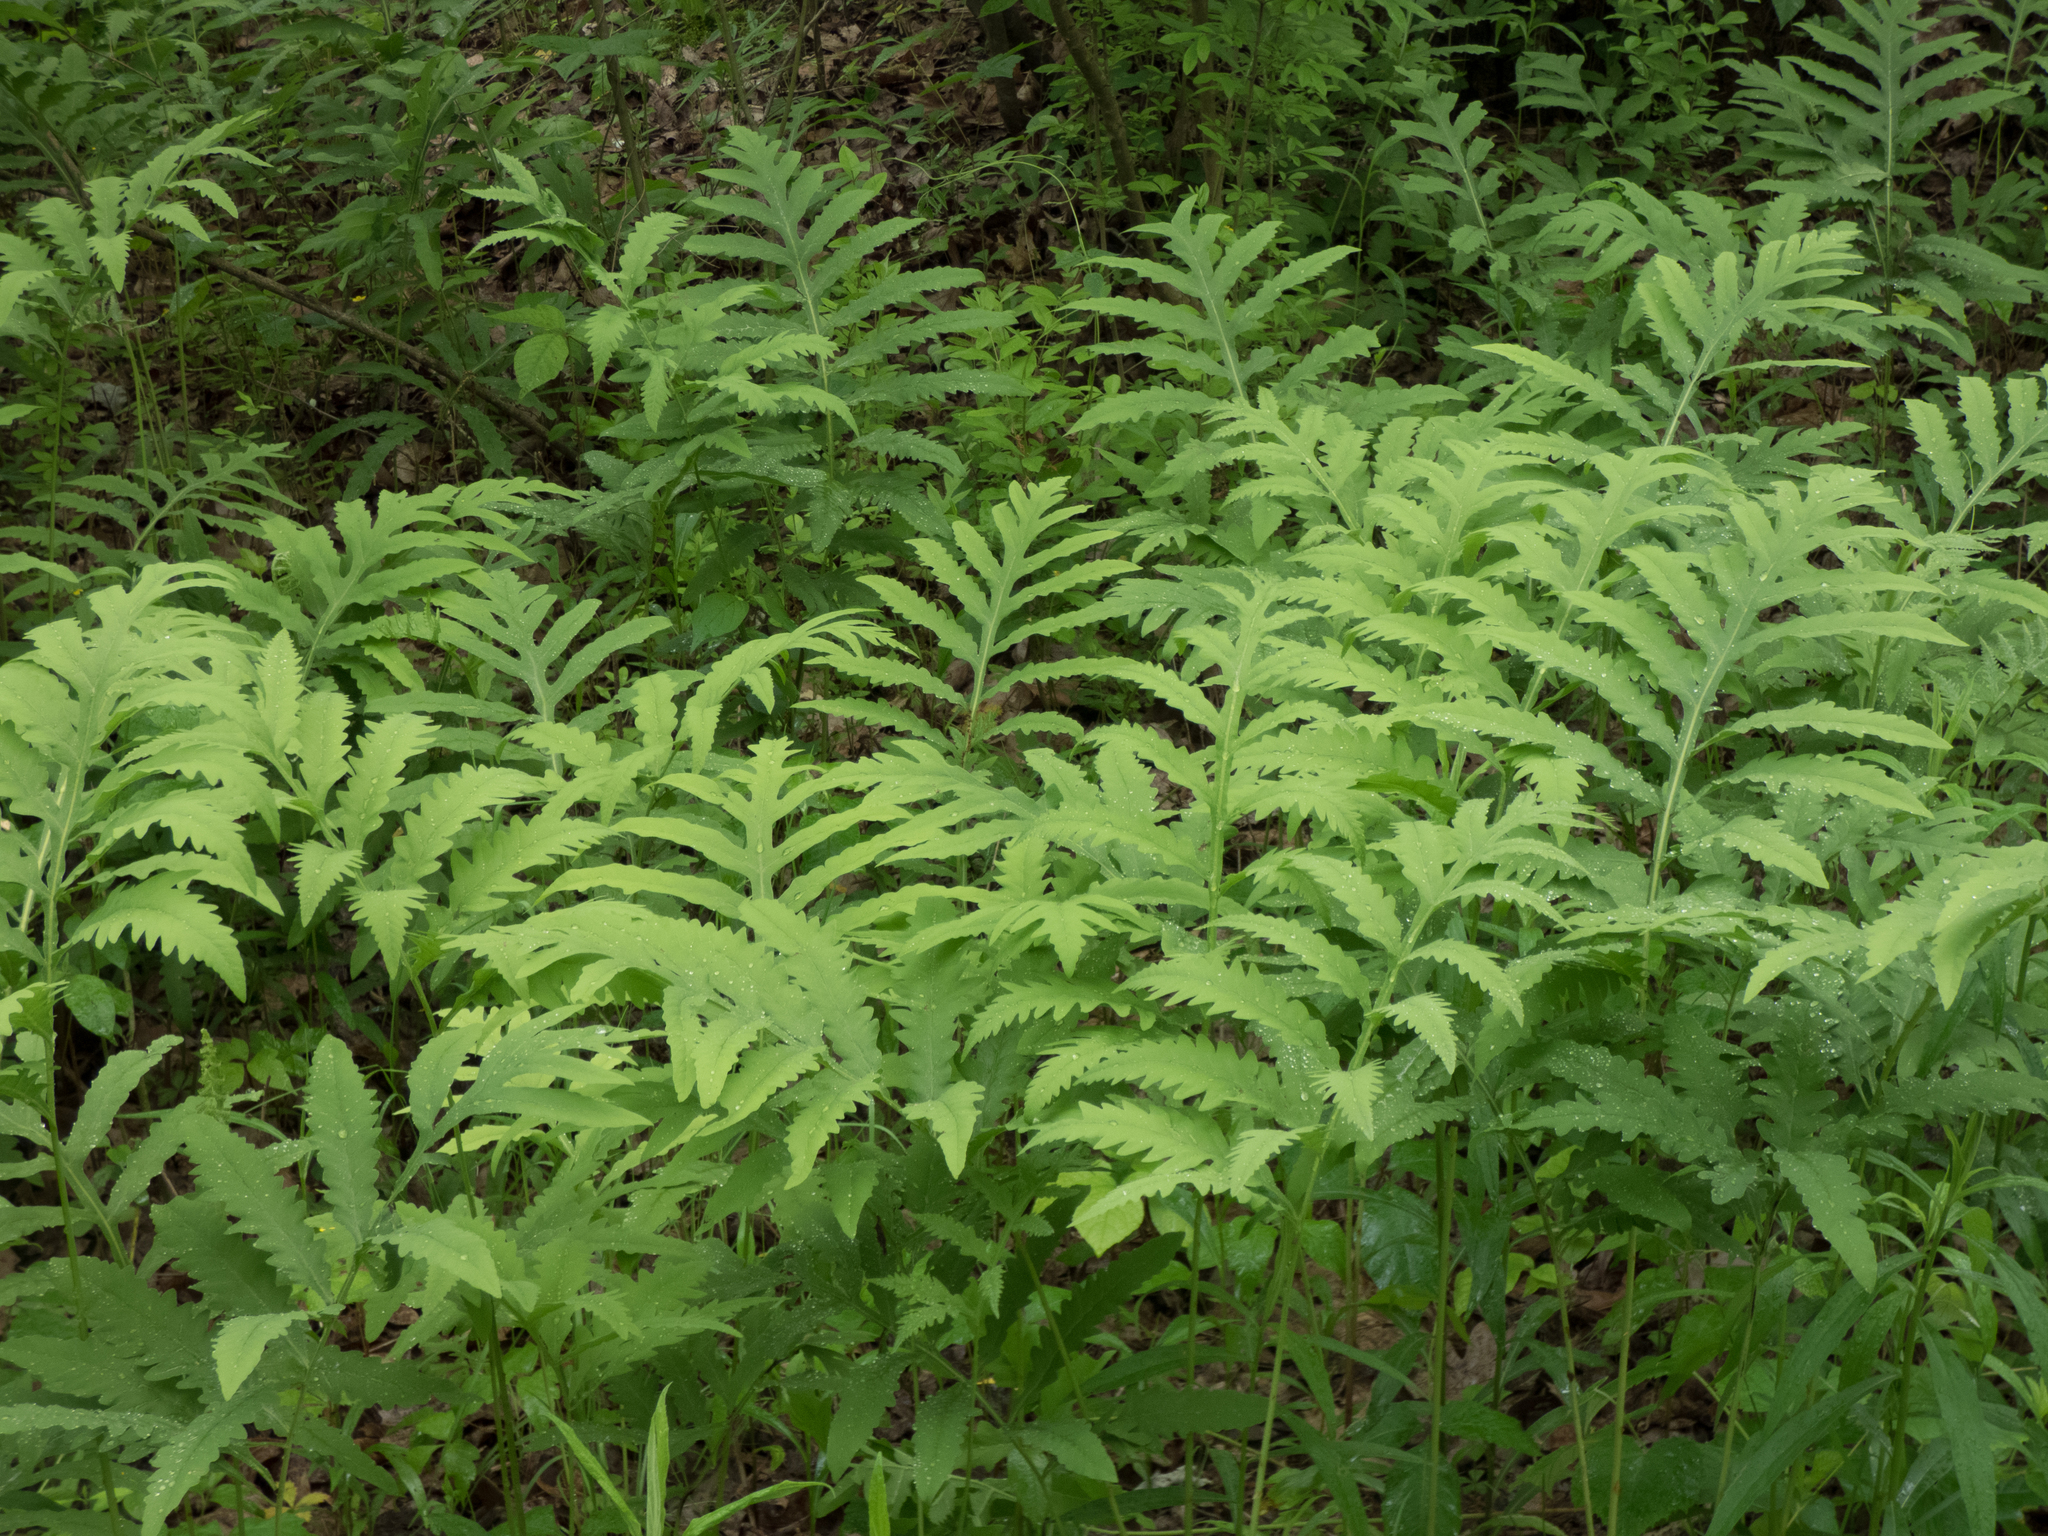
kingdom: Plantae
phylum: Tracheophyta
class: Polypodiopsida
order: Polypodiales
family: Onocleaceae
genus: Onoclea
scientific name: Onoclea sensibilis
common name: Sensitive fern
